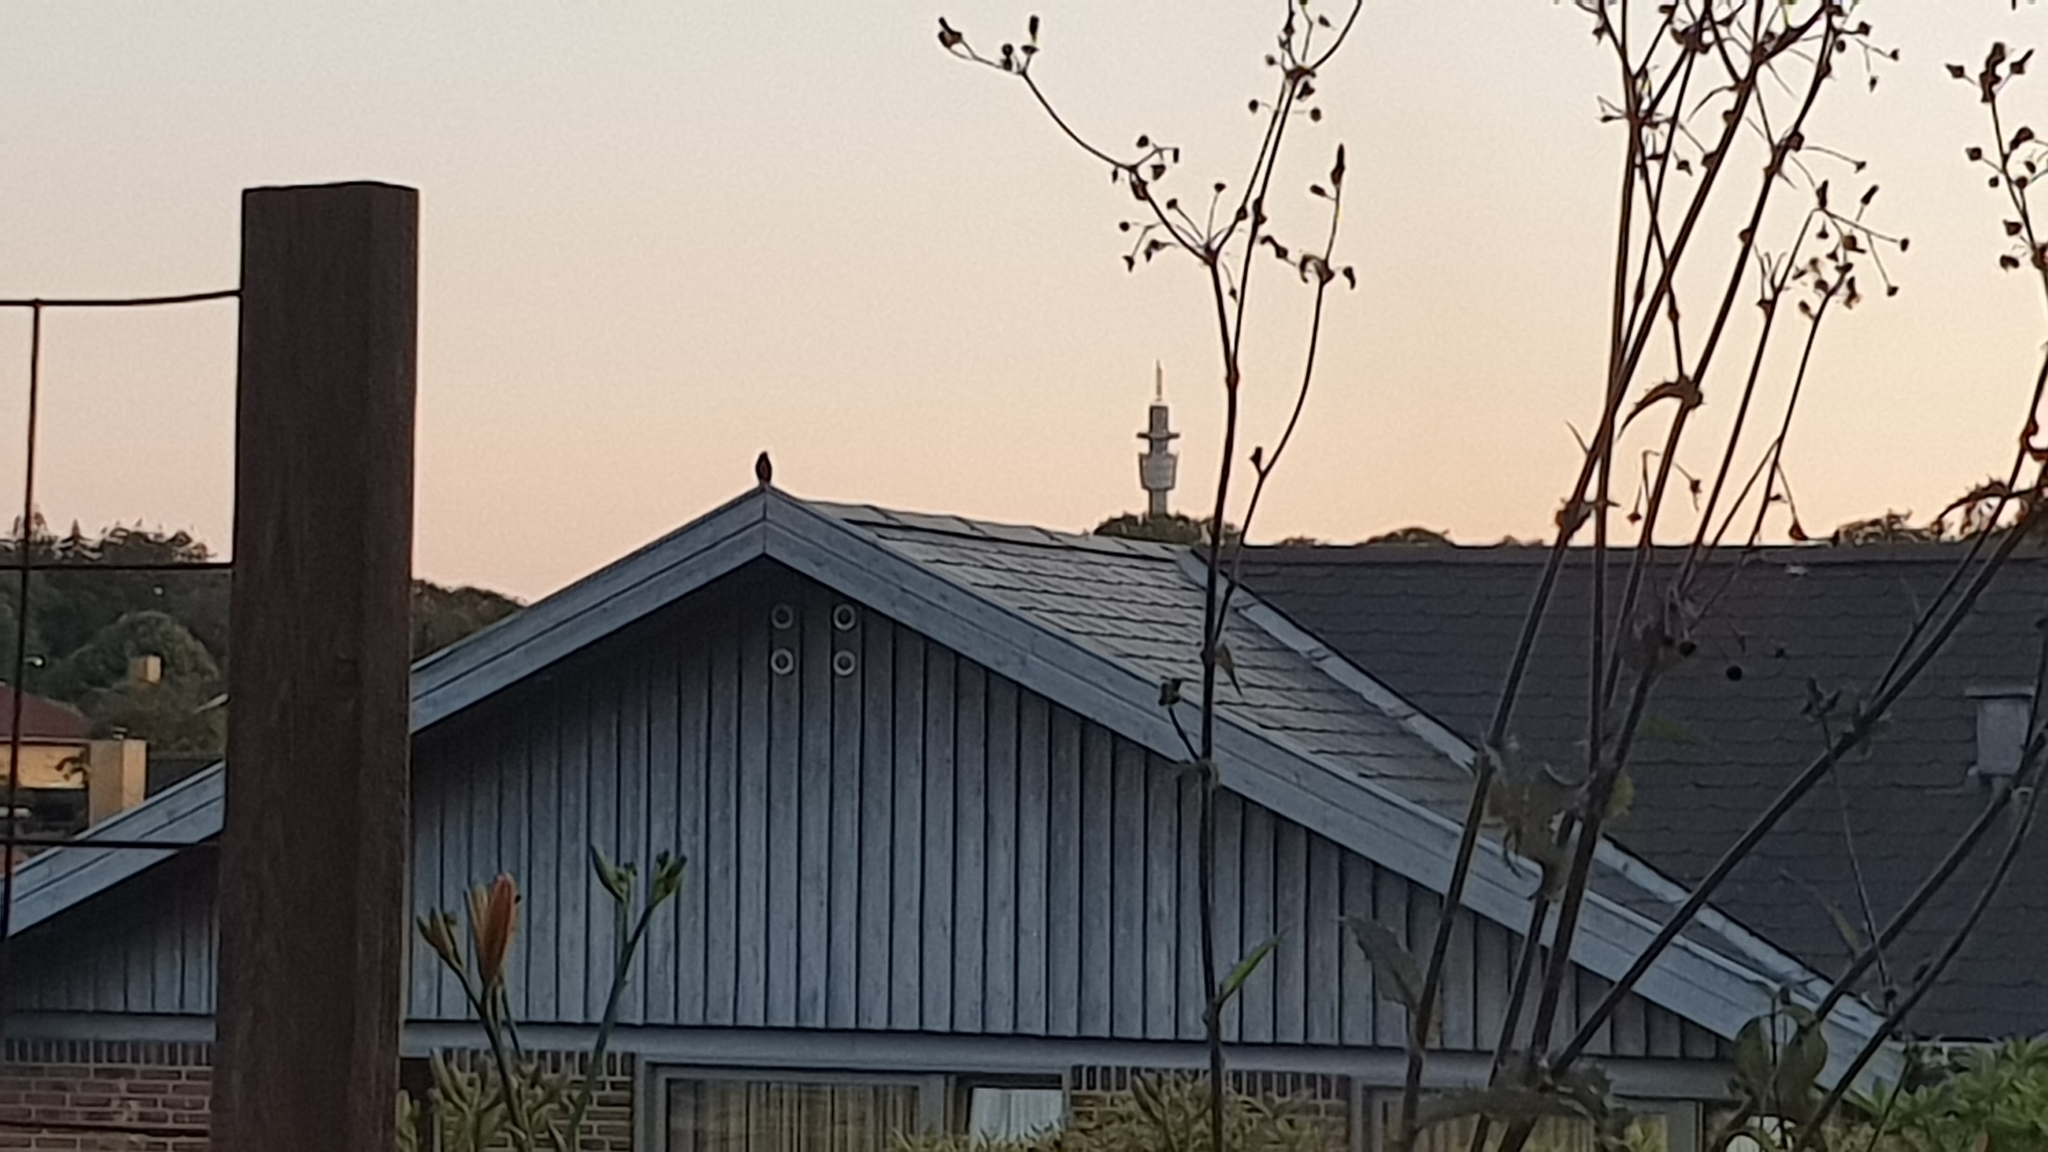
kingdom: Animalia
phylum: Chordata
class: Aves
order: Passeriformes
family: Turdidae
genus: Turdus
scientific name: Turdus merula
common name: Common blackbird
